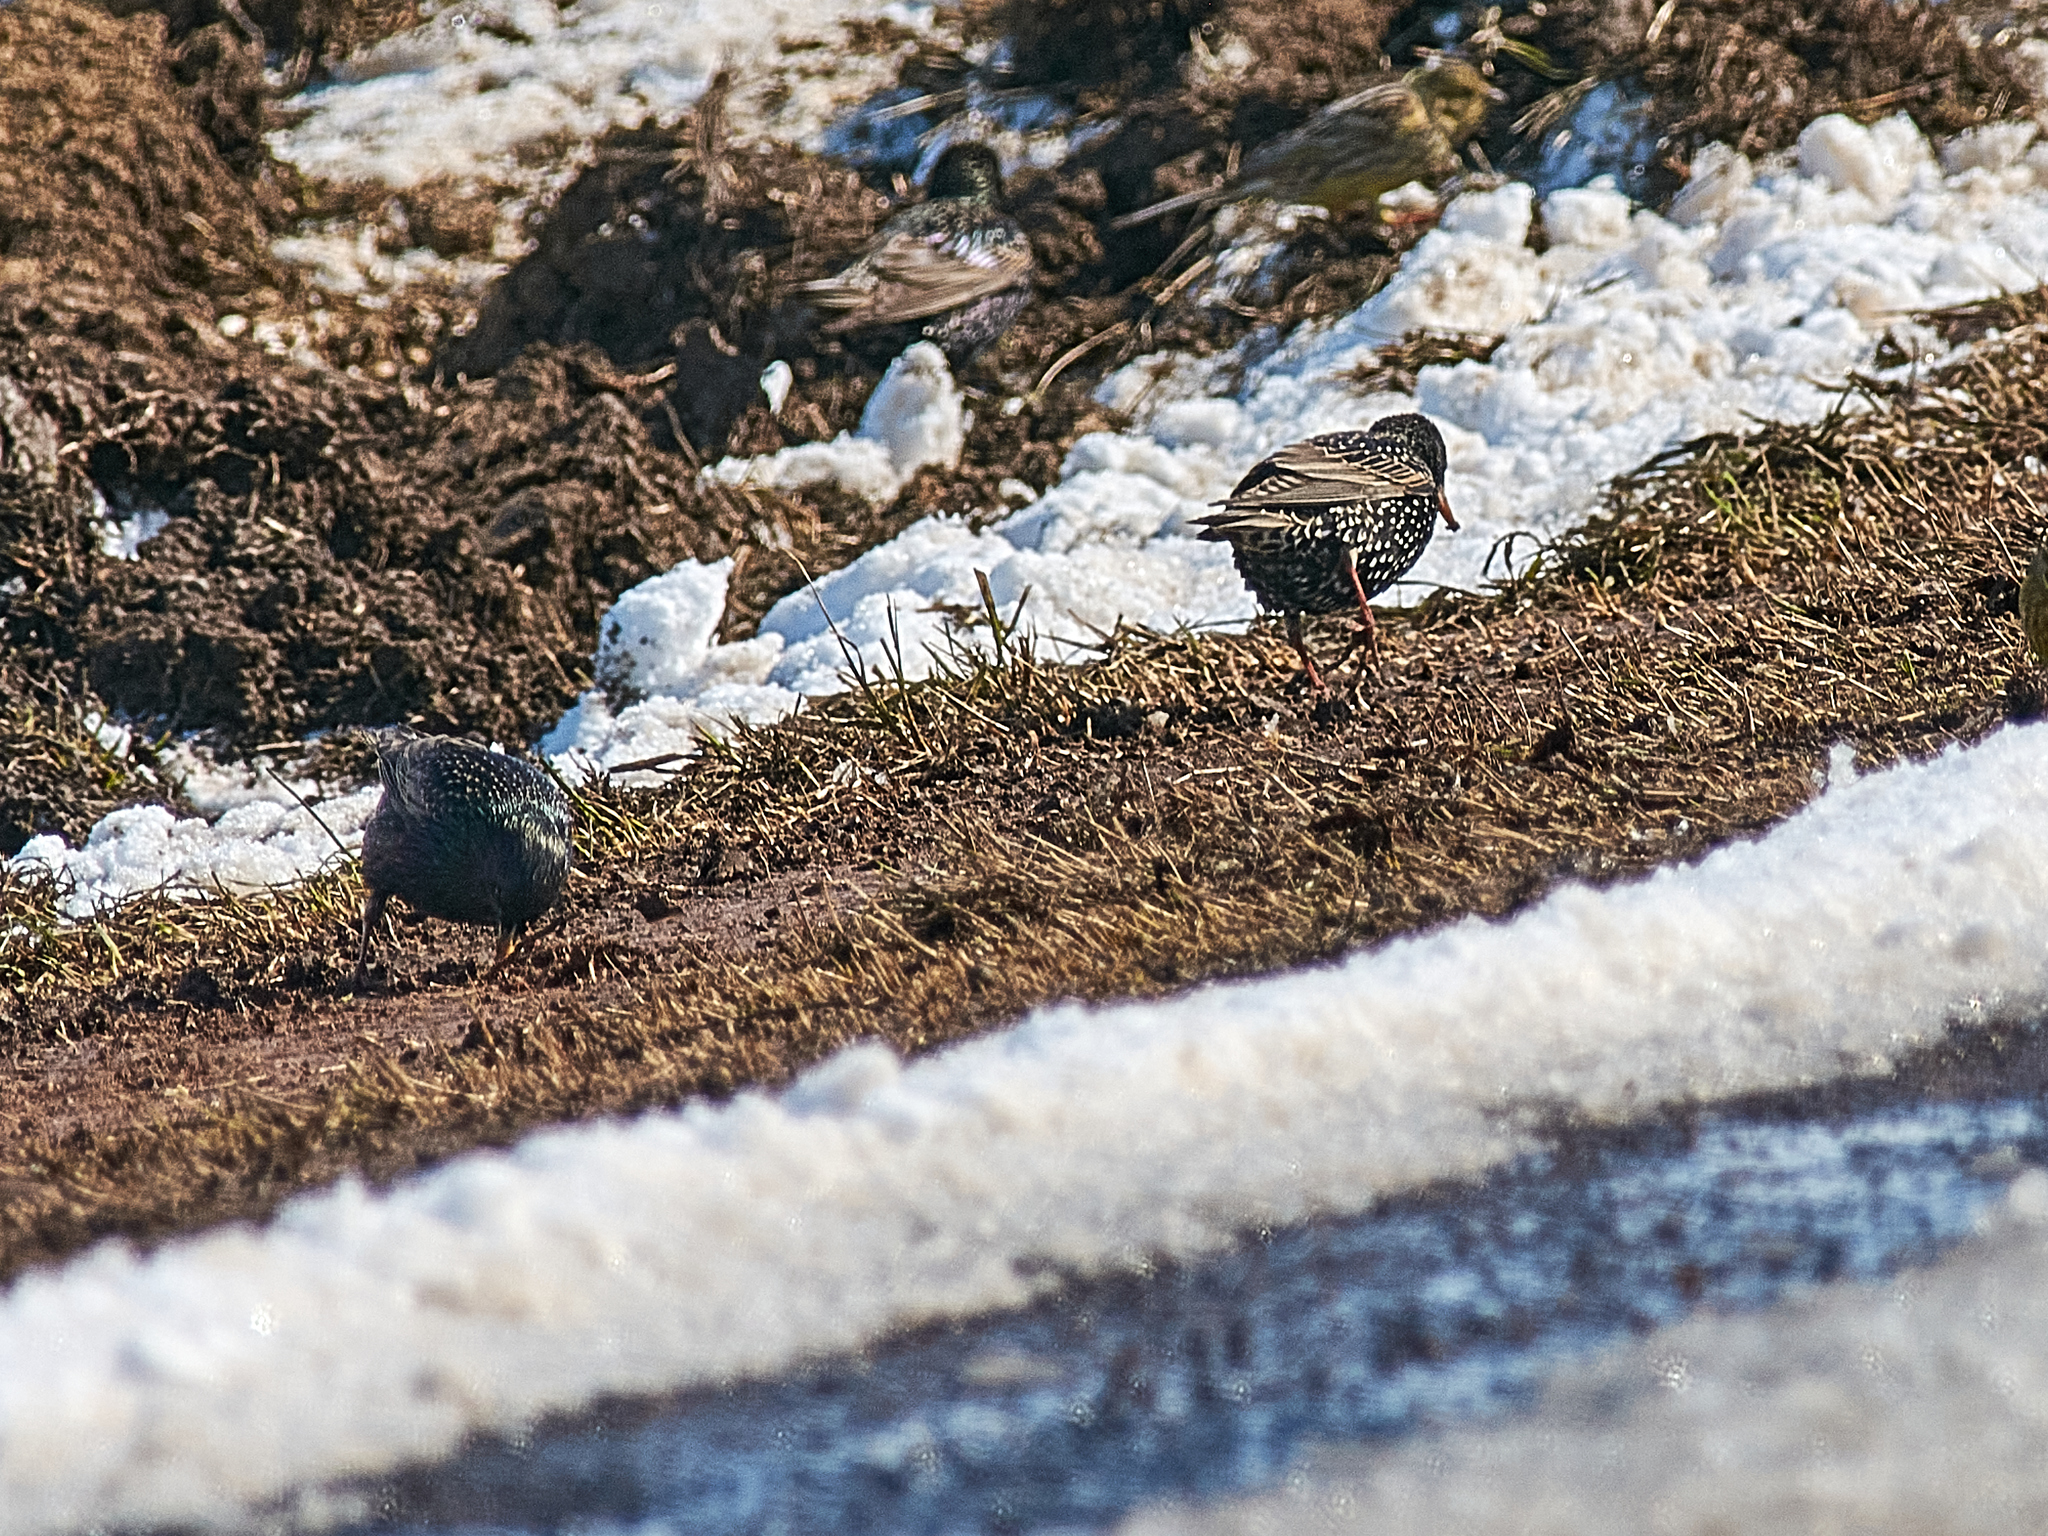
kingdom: Animalia
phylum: Chordata
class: Aves
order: Passeriformes
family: Sturnidae
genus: Sturnus
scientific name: Sturnus vulgaris
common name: Common starling
